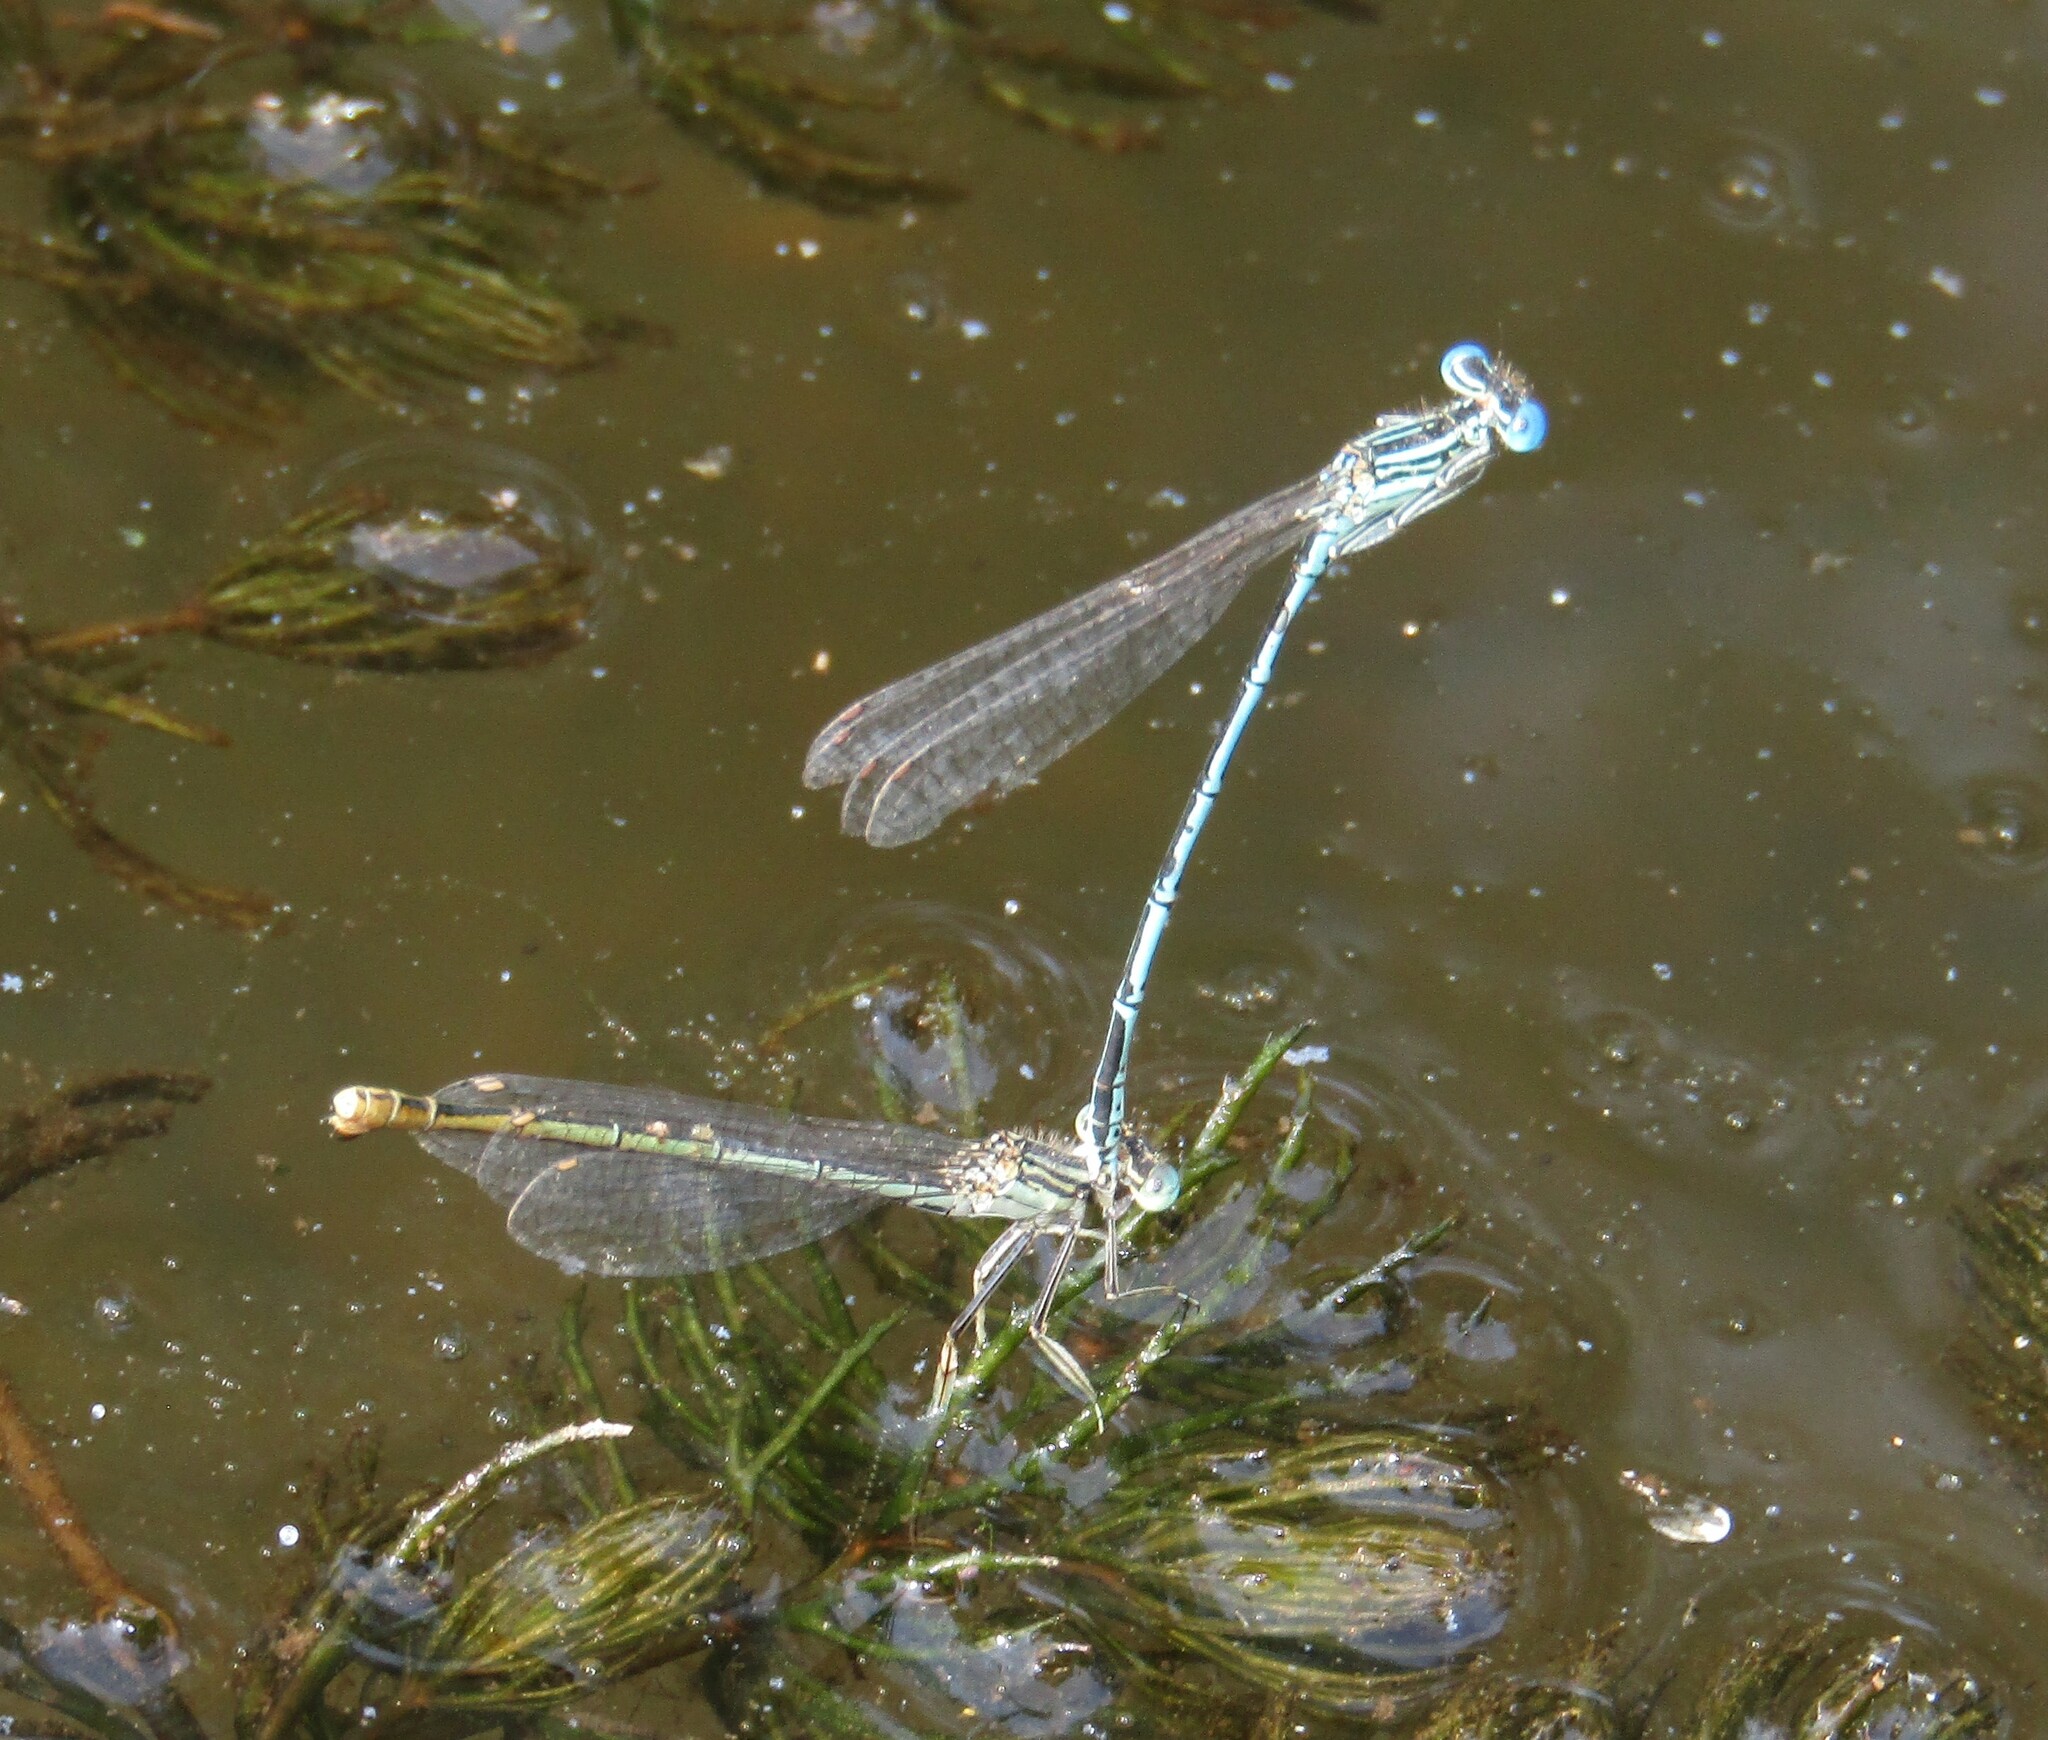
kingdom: Animalia
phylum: Arthropoda
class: Insecta
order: Odonata
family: Platycnemididae
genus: Platycnemis
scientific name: Platycnemis pennipes
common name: White-legged damselfly
